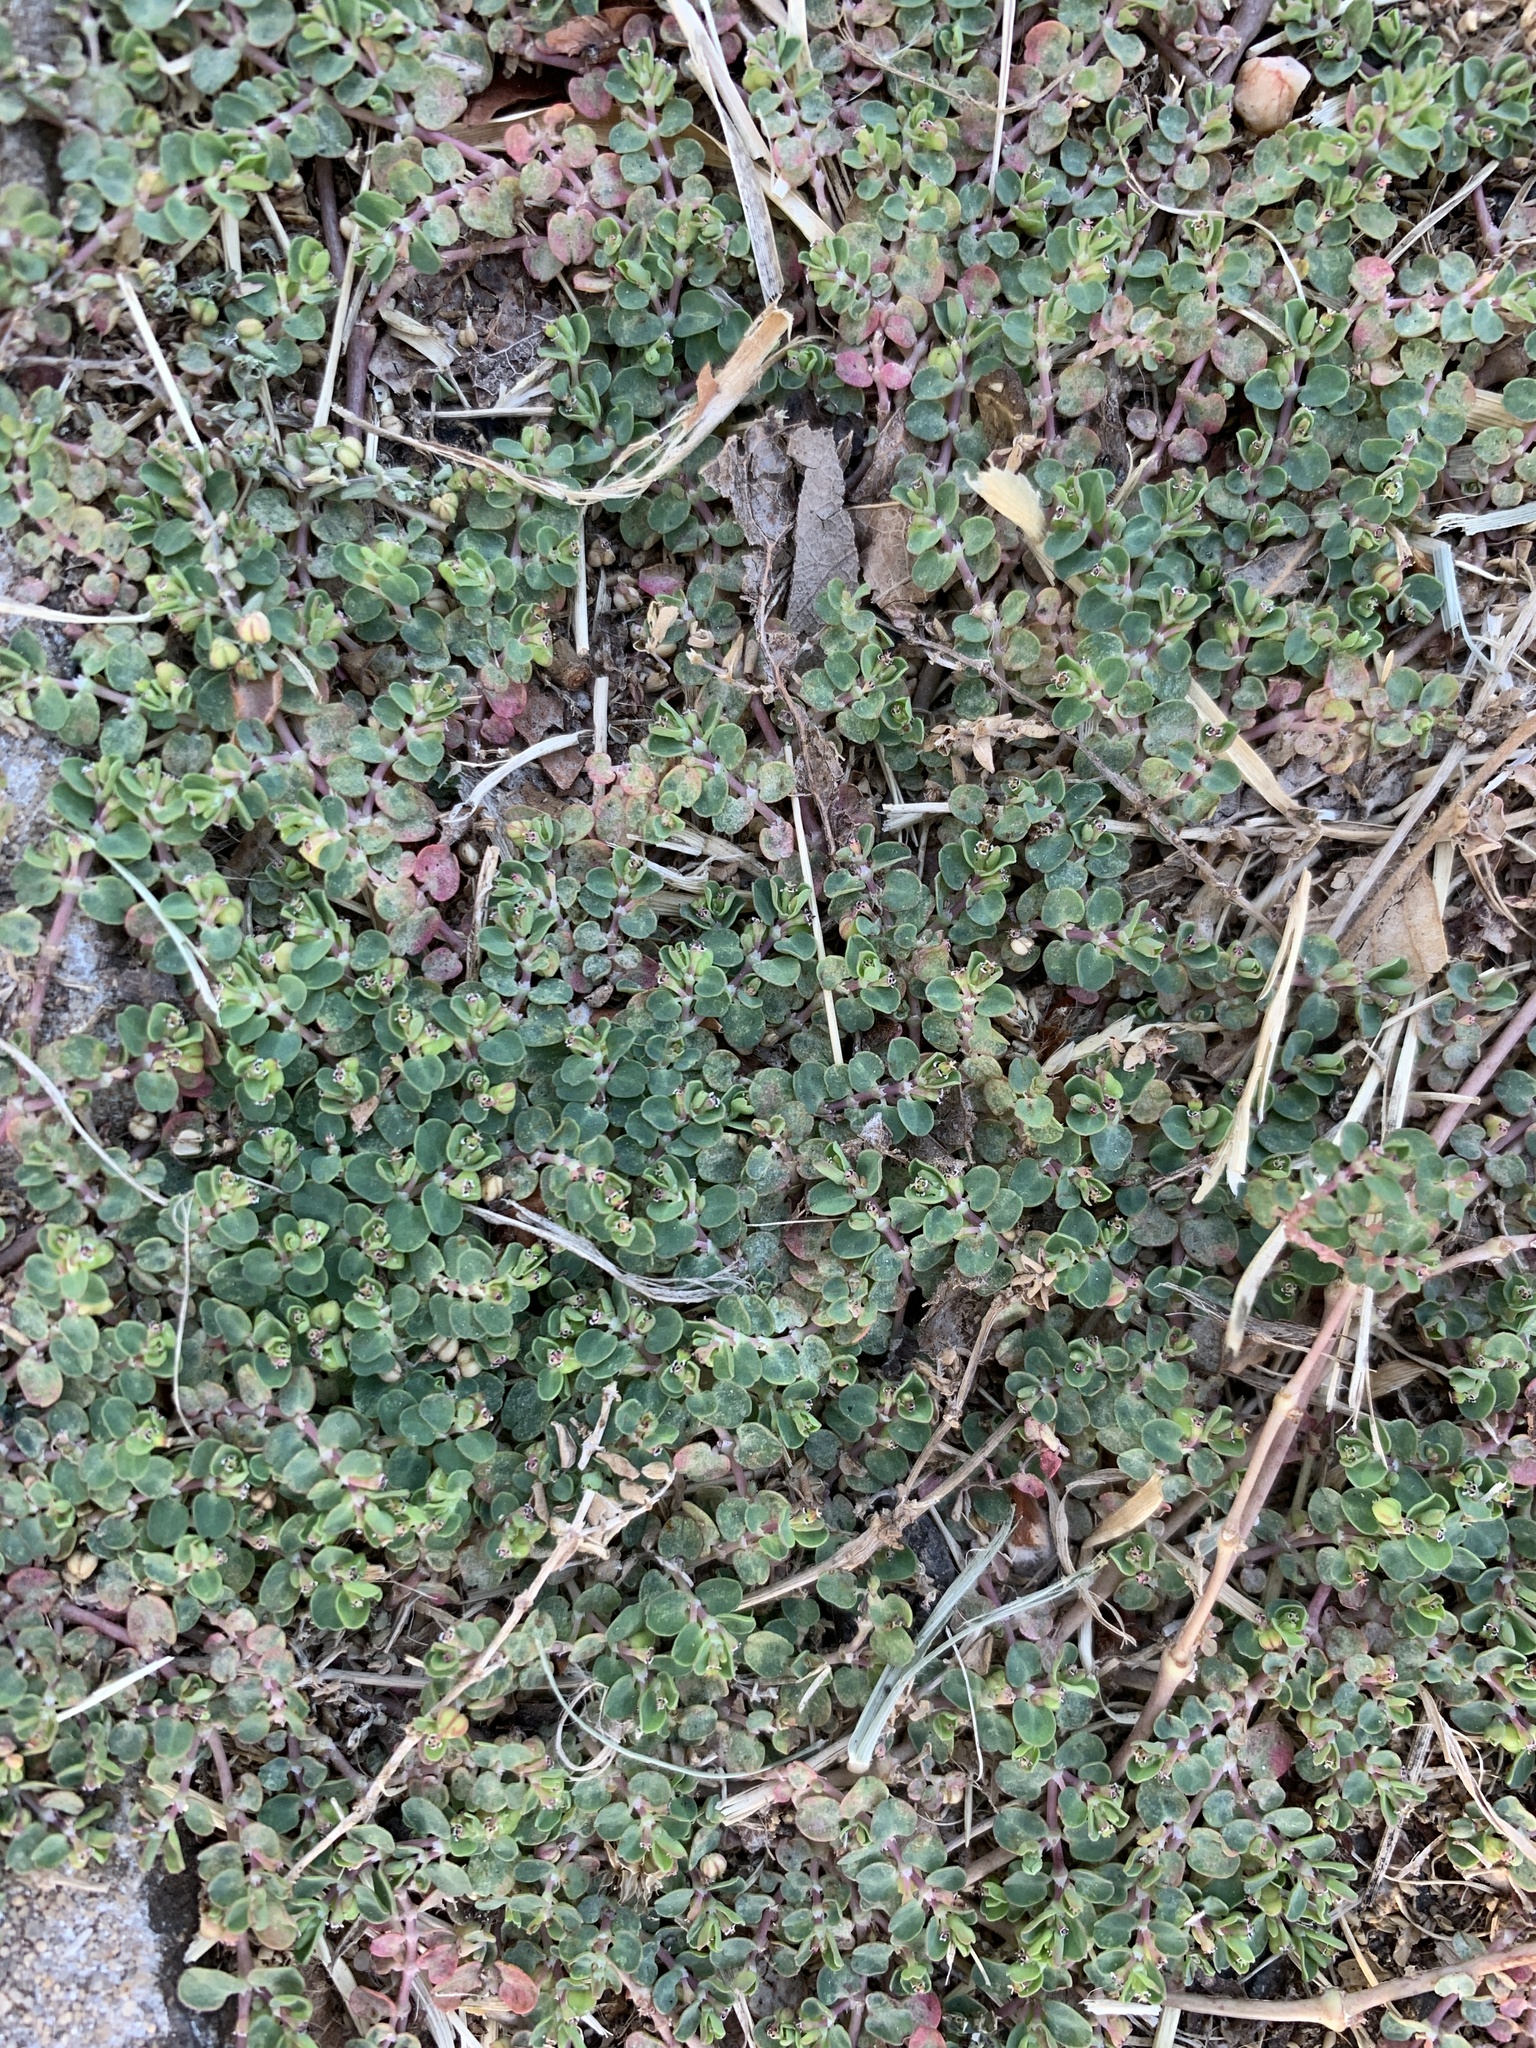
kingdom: Plantae
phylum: Tracheophyta
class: Magnoliopsida
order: Malpighiales
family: Euphorbiaceae
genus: Euphorbia
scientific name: Euphorbia serpens
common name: Matted sandmat
